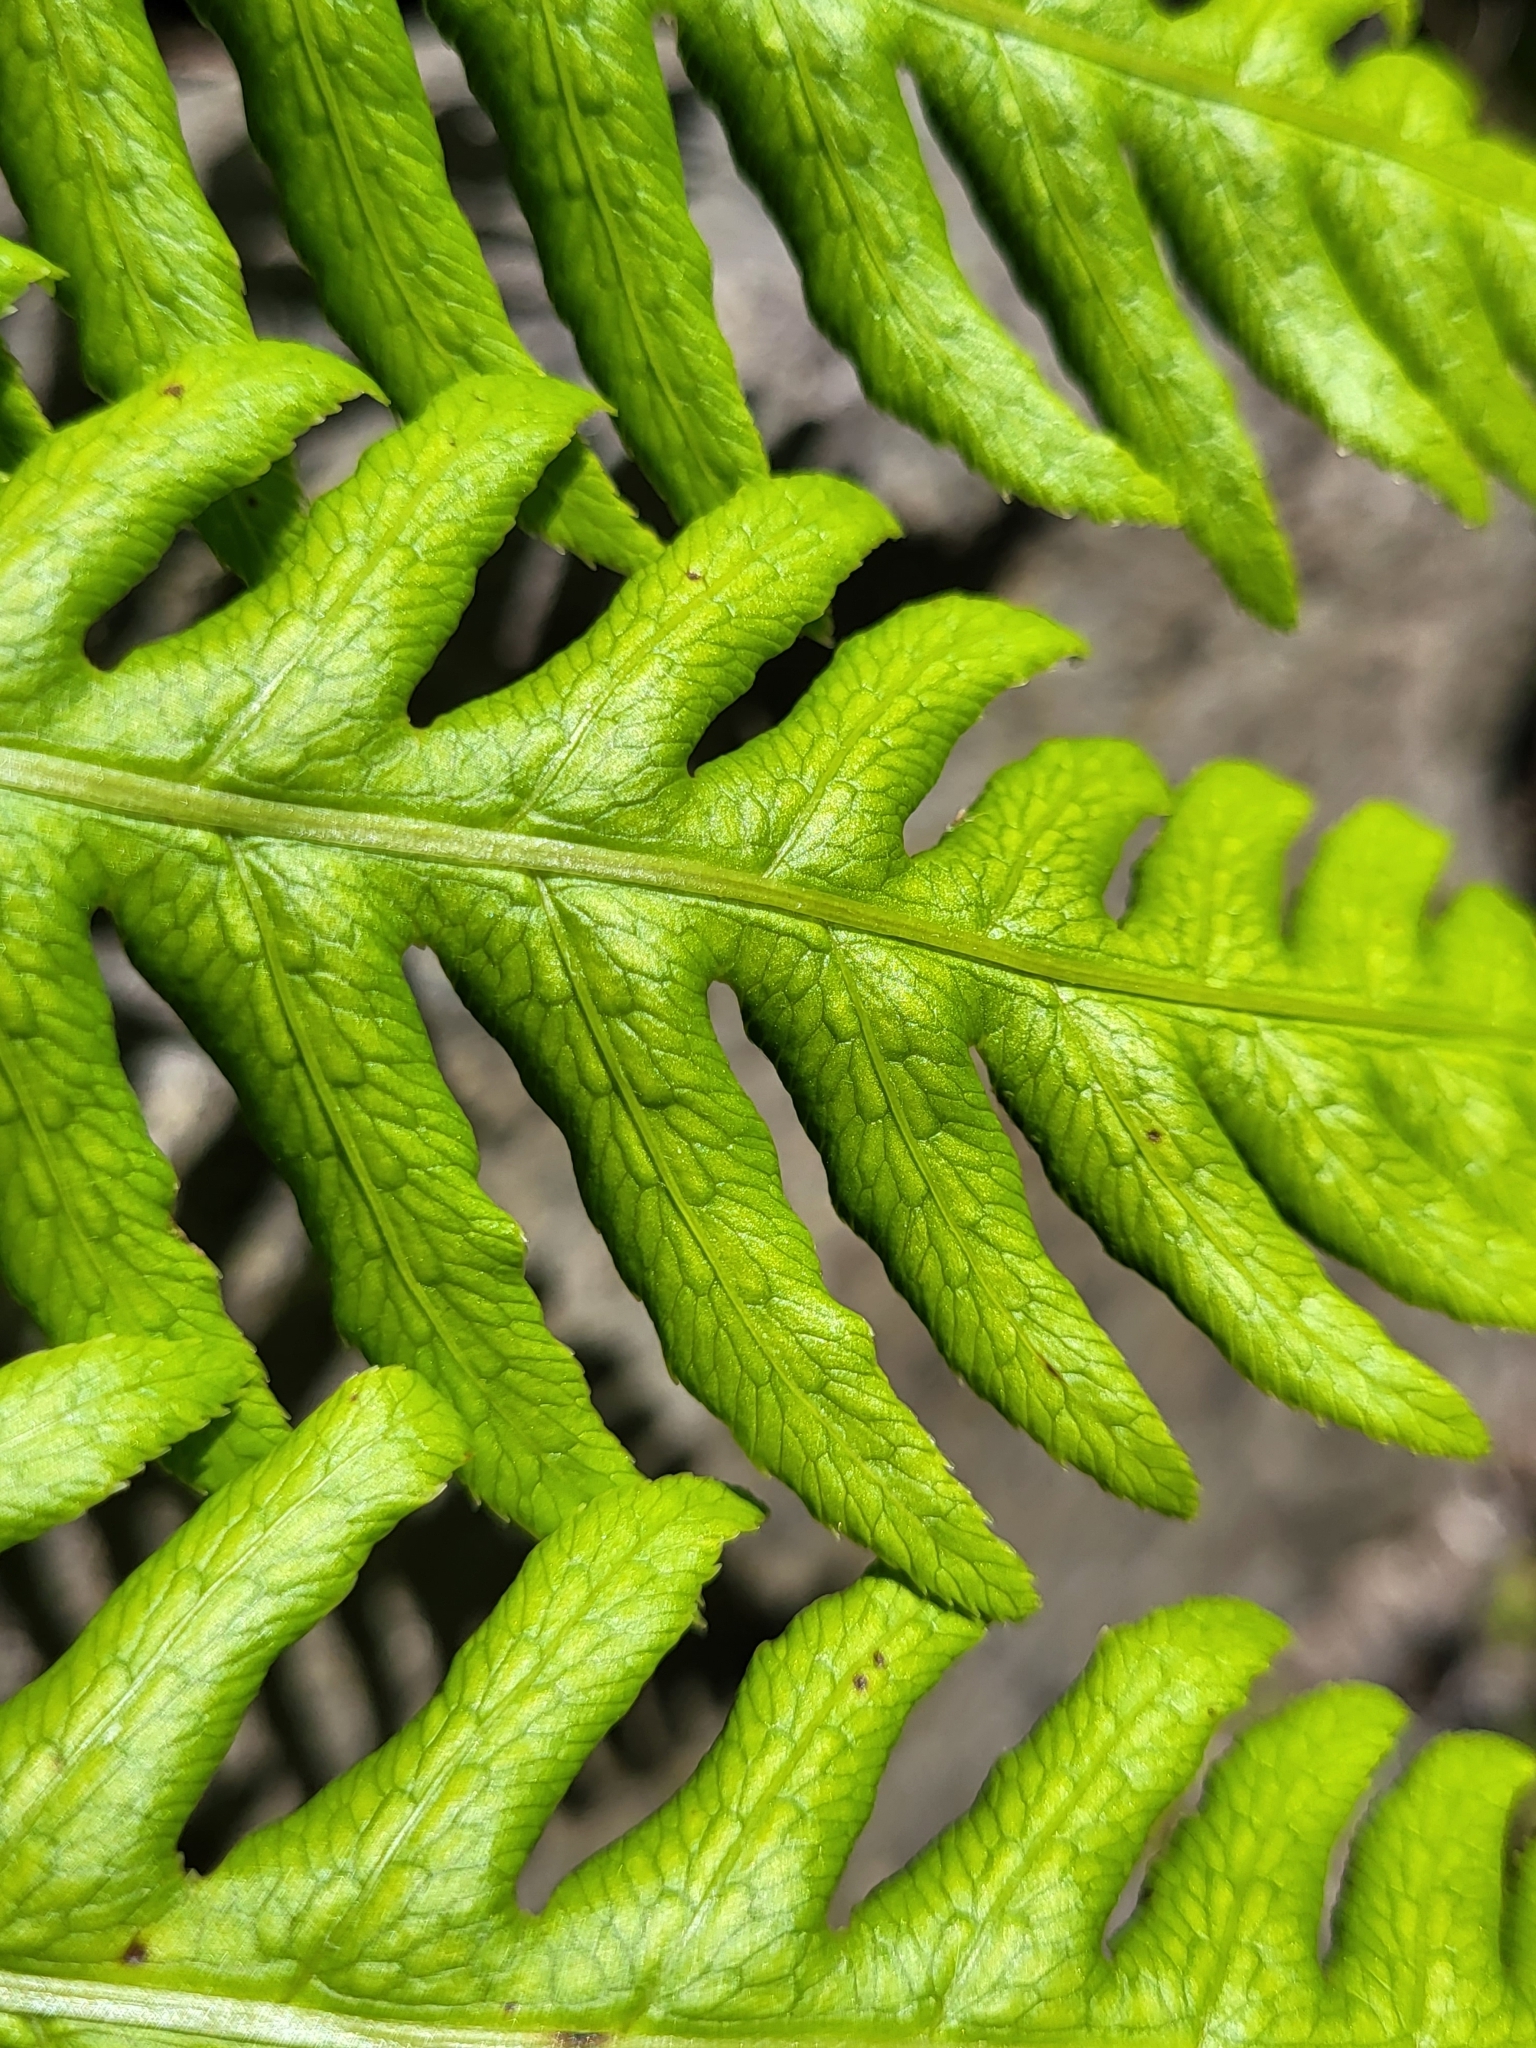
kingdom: Plantae
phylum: Tracheophyta
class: Polypodiopsida
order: Polypodiales
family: Blechnaceae
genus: Woodwardia
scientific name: Woodwardia radicans
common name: Rooting chainfern
